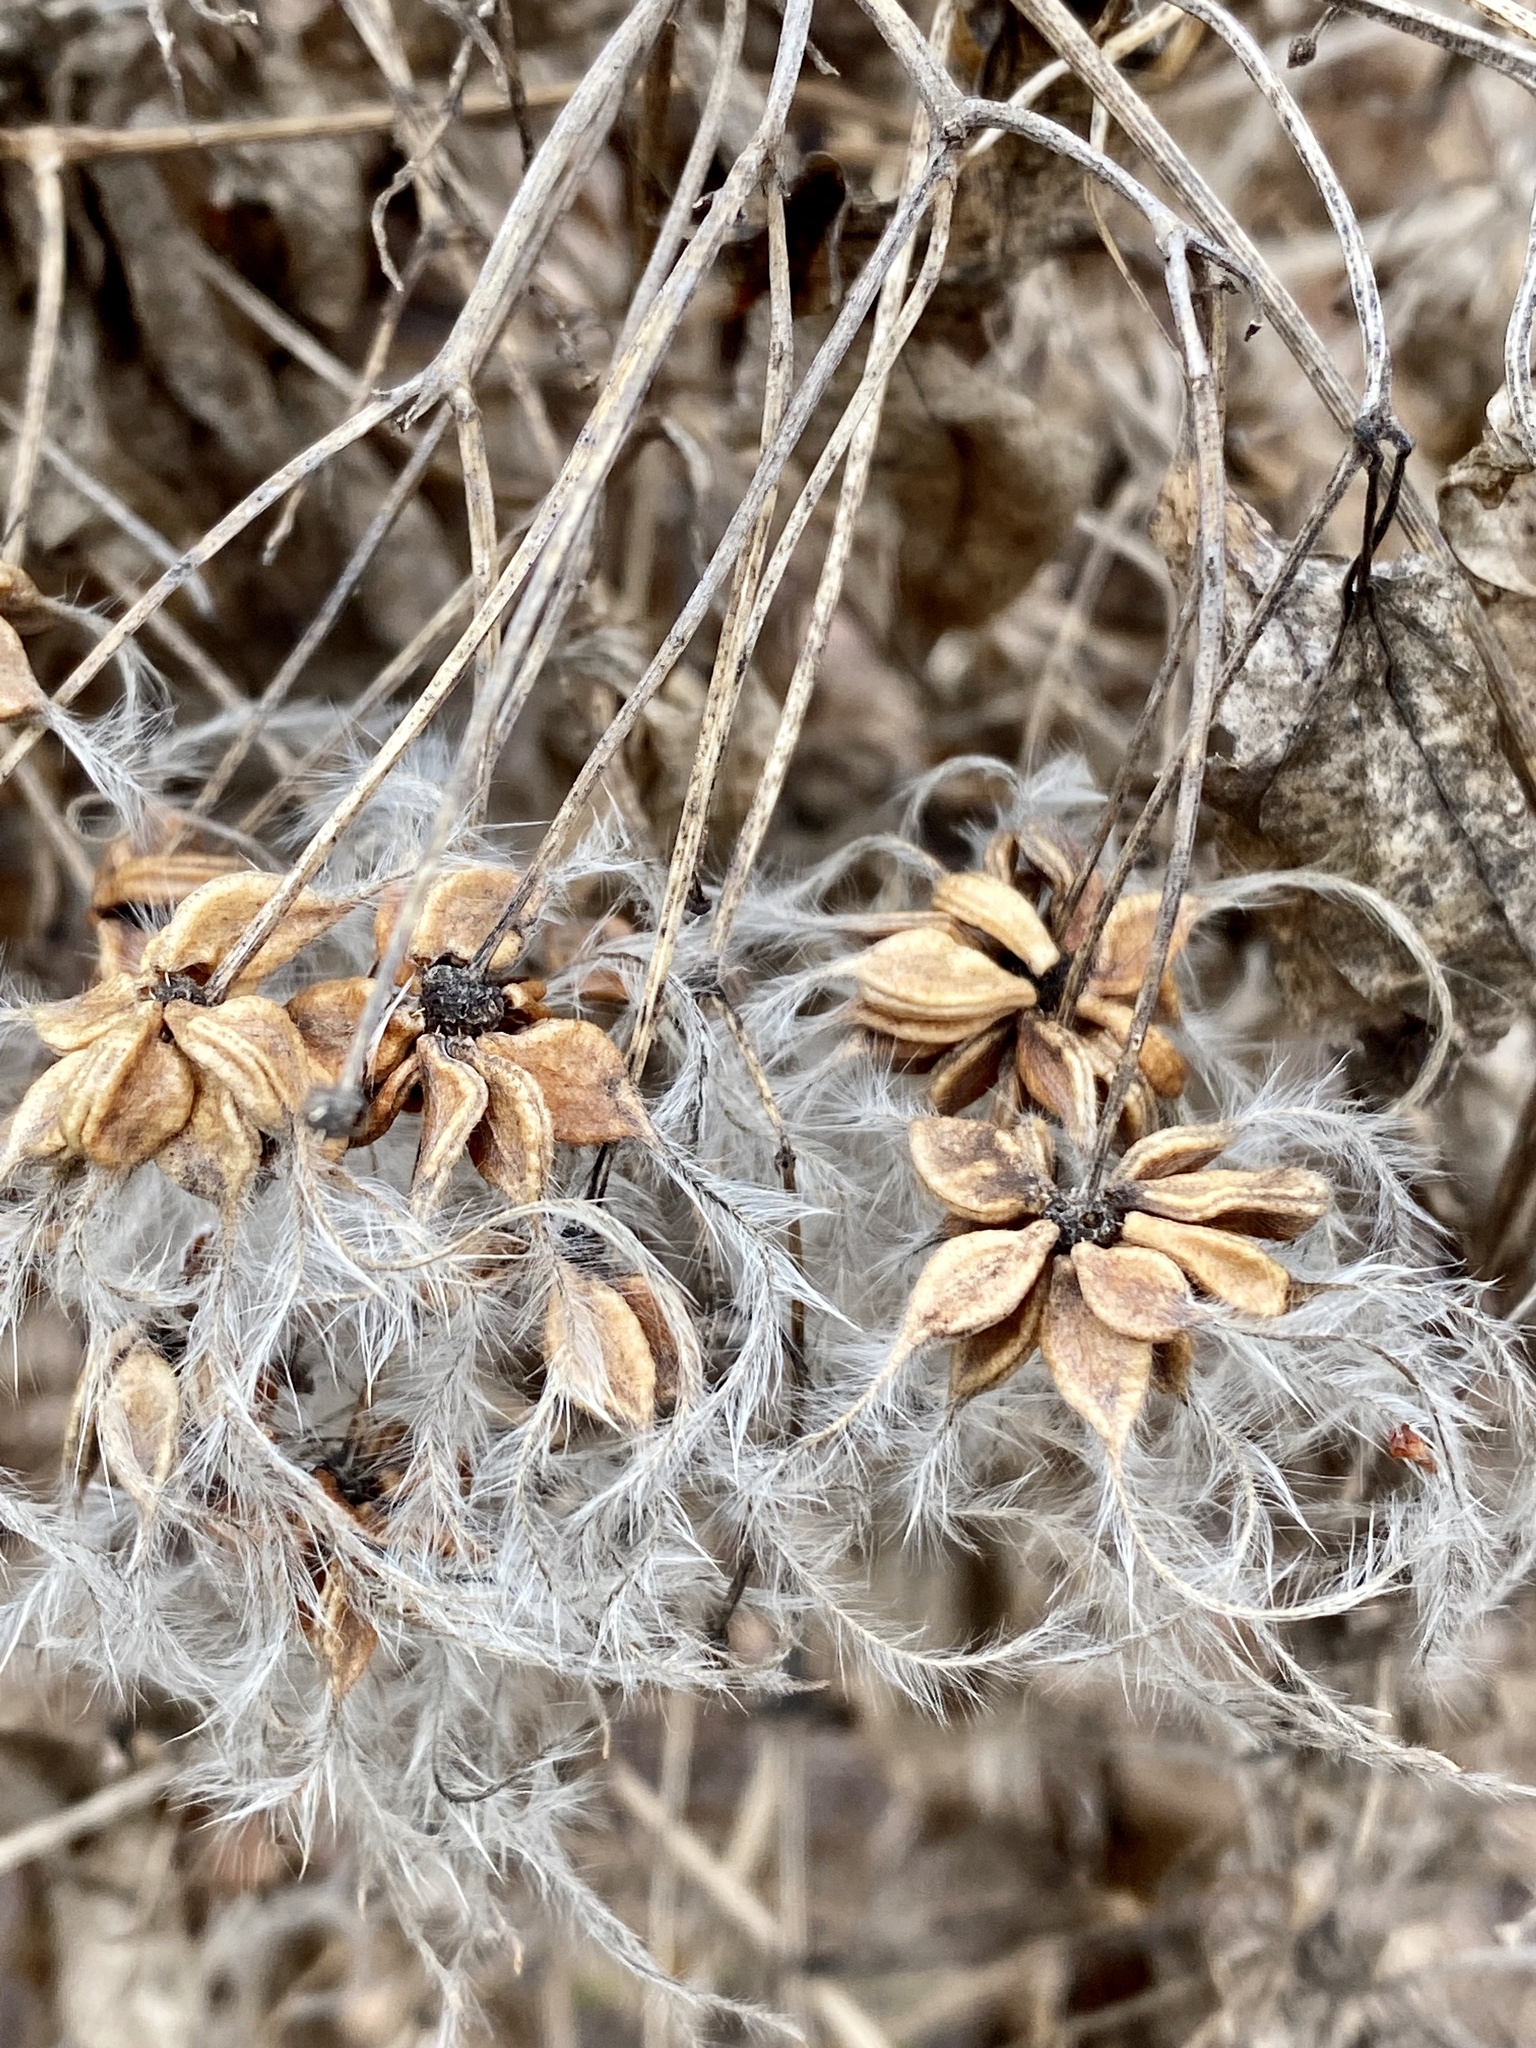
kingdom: Plantae
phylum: Tracheophyta
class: Magnoliopsida
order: Ranunculales
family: Ranunculaceae
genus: Clematis
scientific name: Clematis terniflora
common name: Sweet autumn clematis
